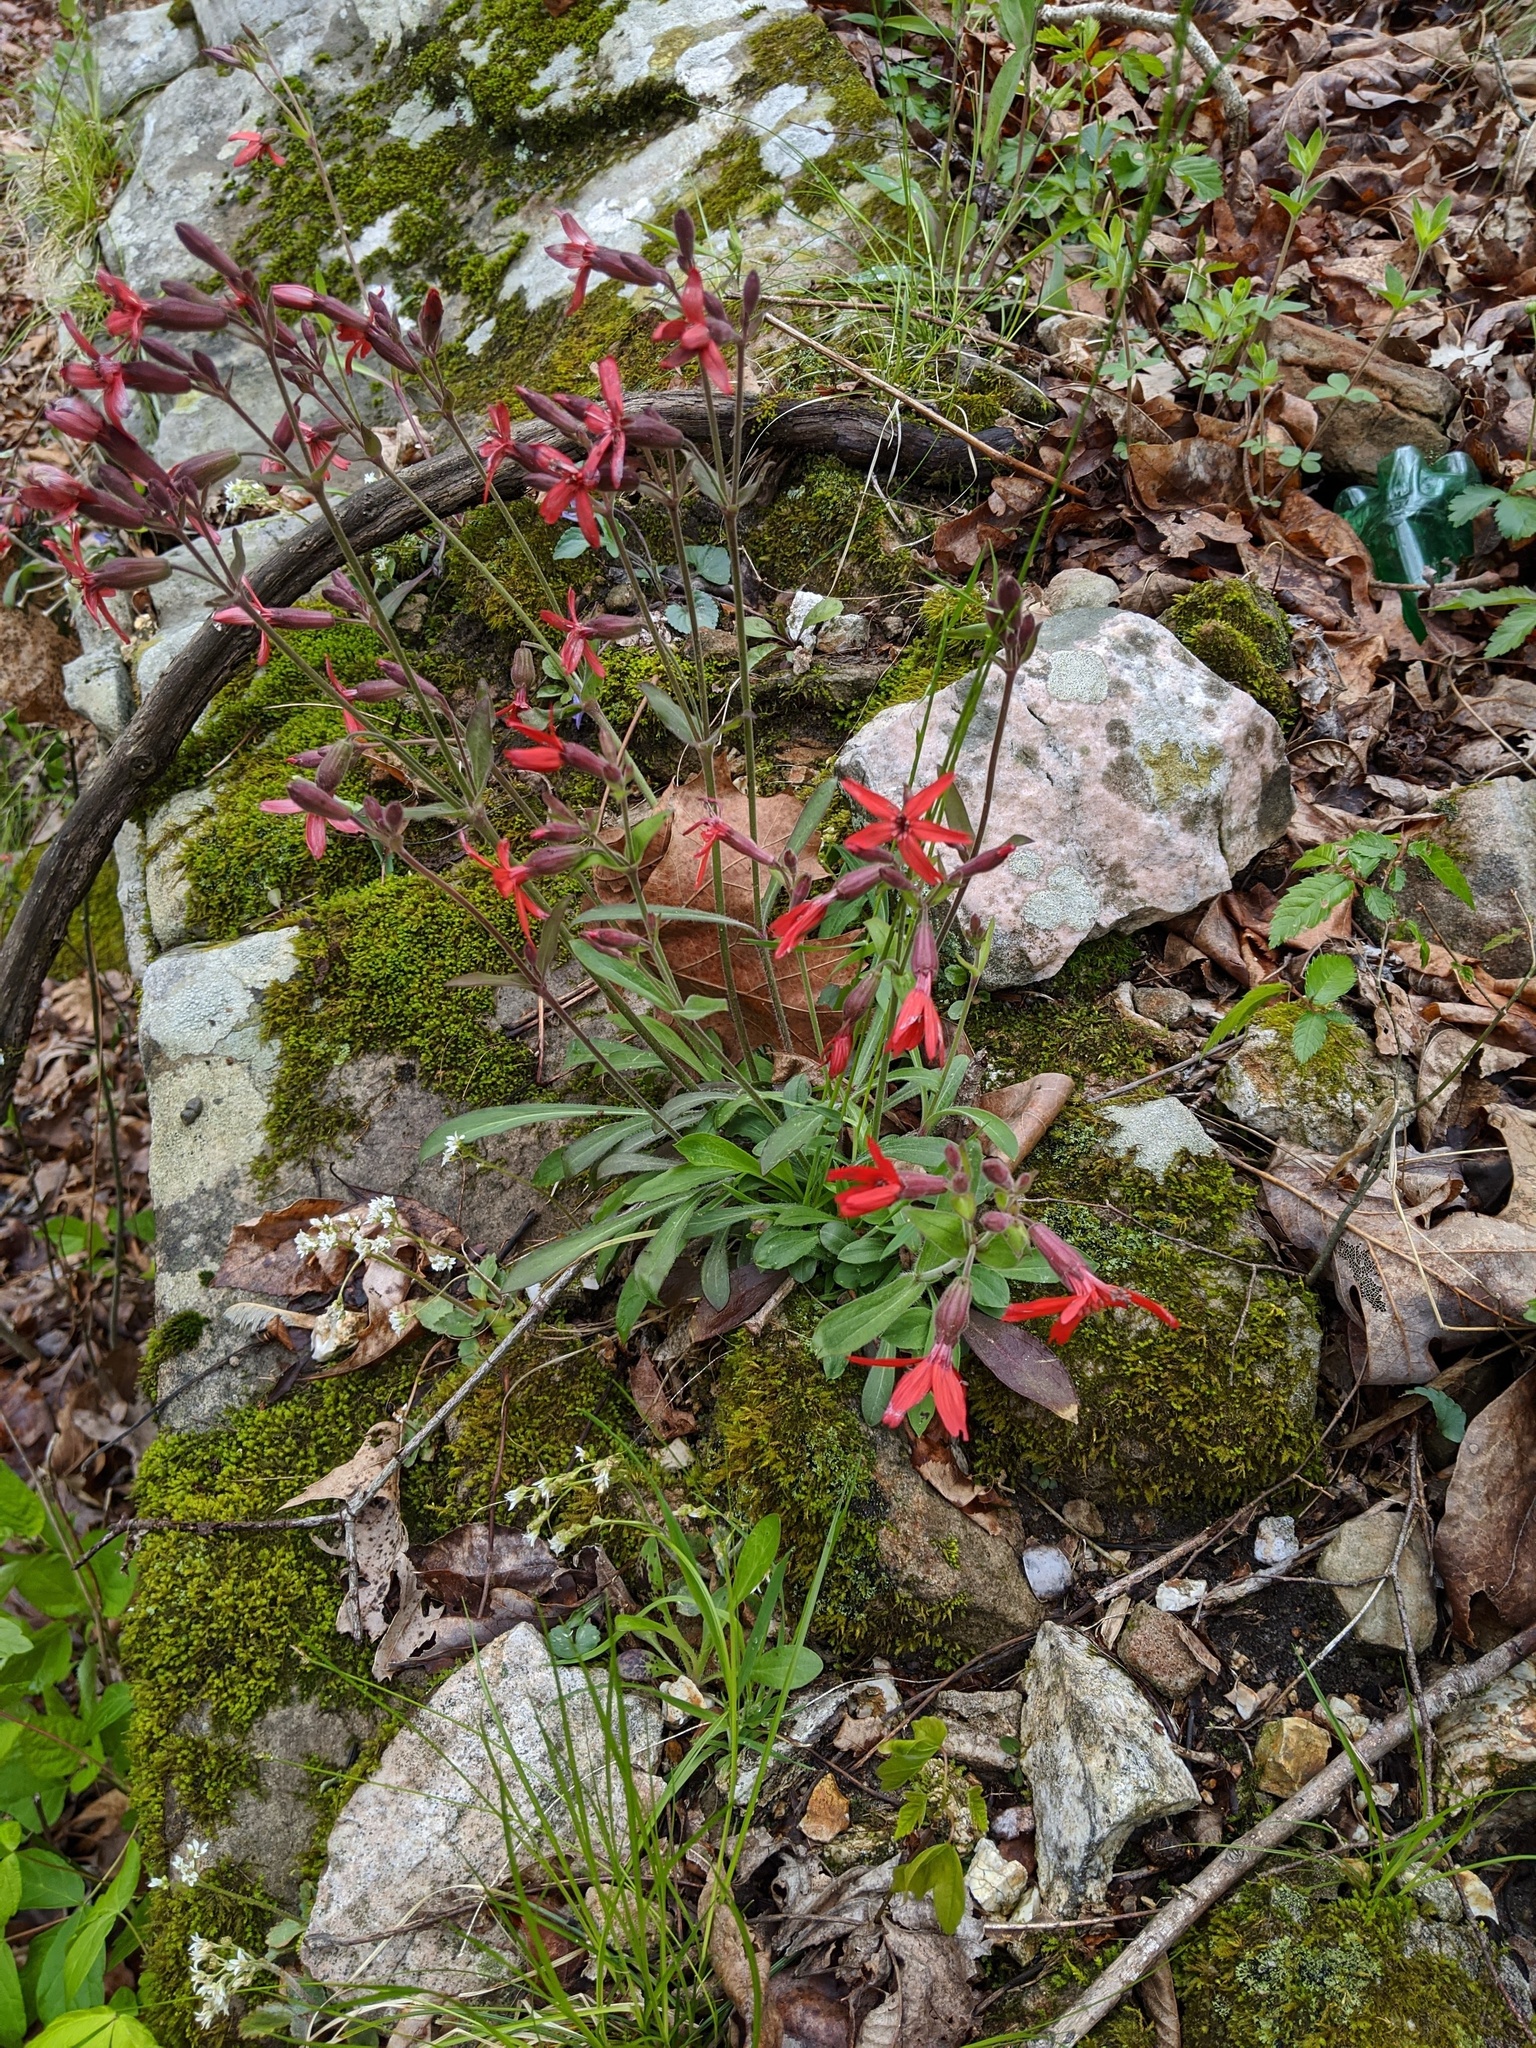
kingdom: Plantae
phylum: Tracheophyta
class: Magnoliopsida
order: Caryophyllales
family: Caryophyllaceae
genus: Silene
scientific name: Silene virginica
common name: Fire-pink
